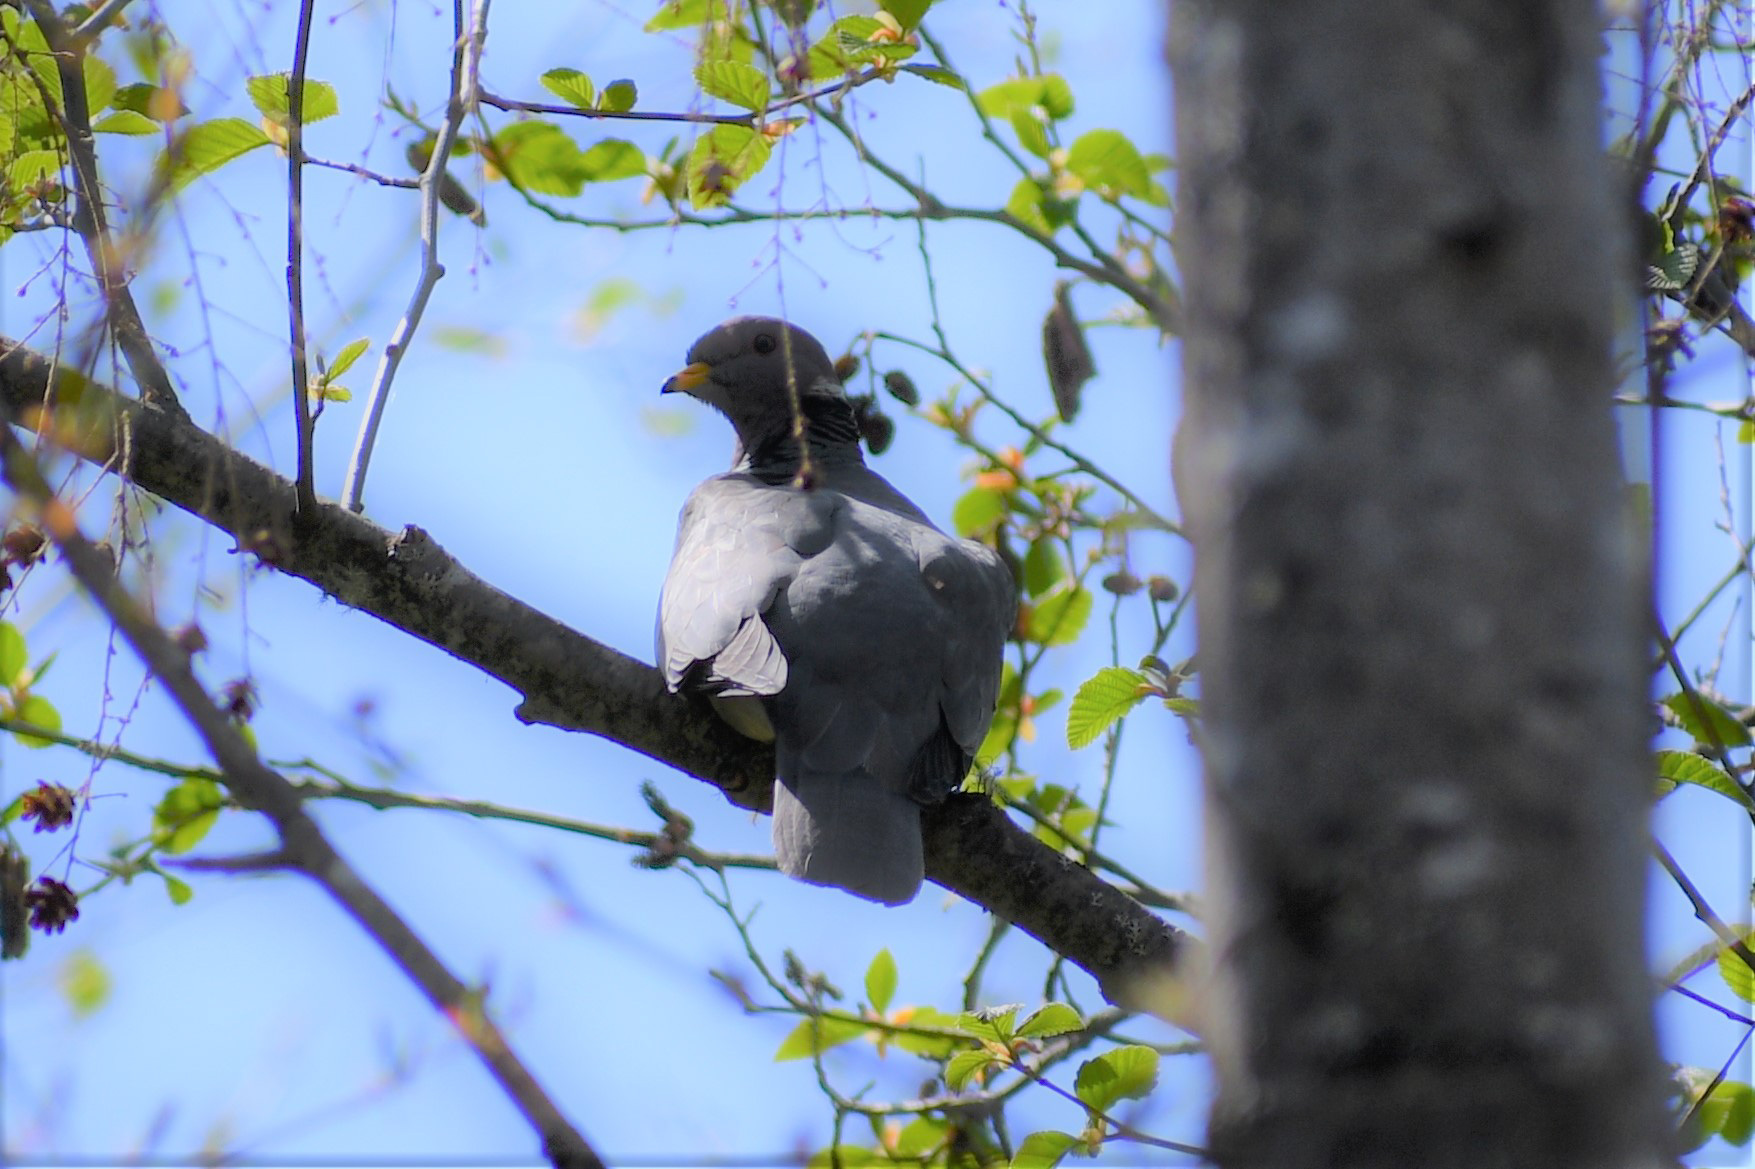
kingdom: Animalia
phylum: Chordata
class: Aves
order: Columbiformes
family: Columbidae
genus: Patagioenas
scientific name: Patagioenas fasciata
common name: Band-tailed pigeon
